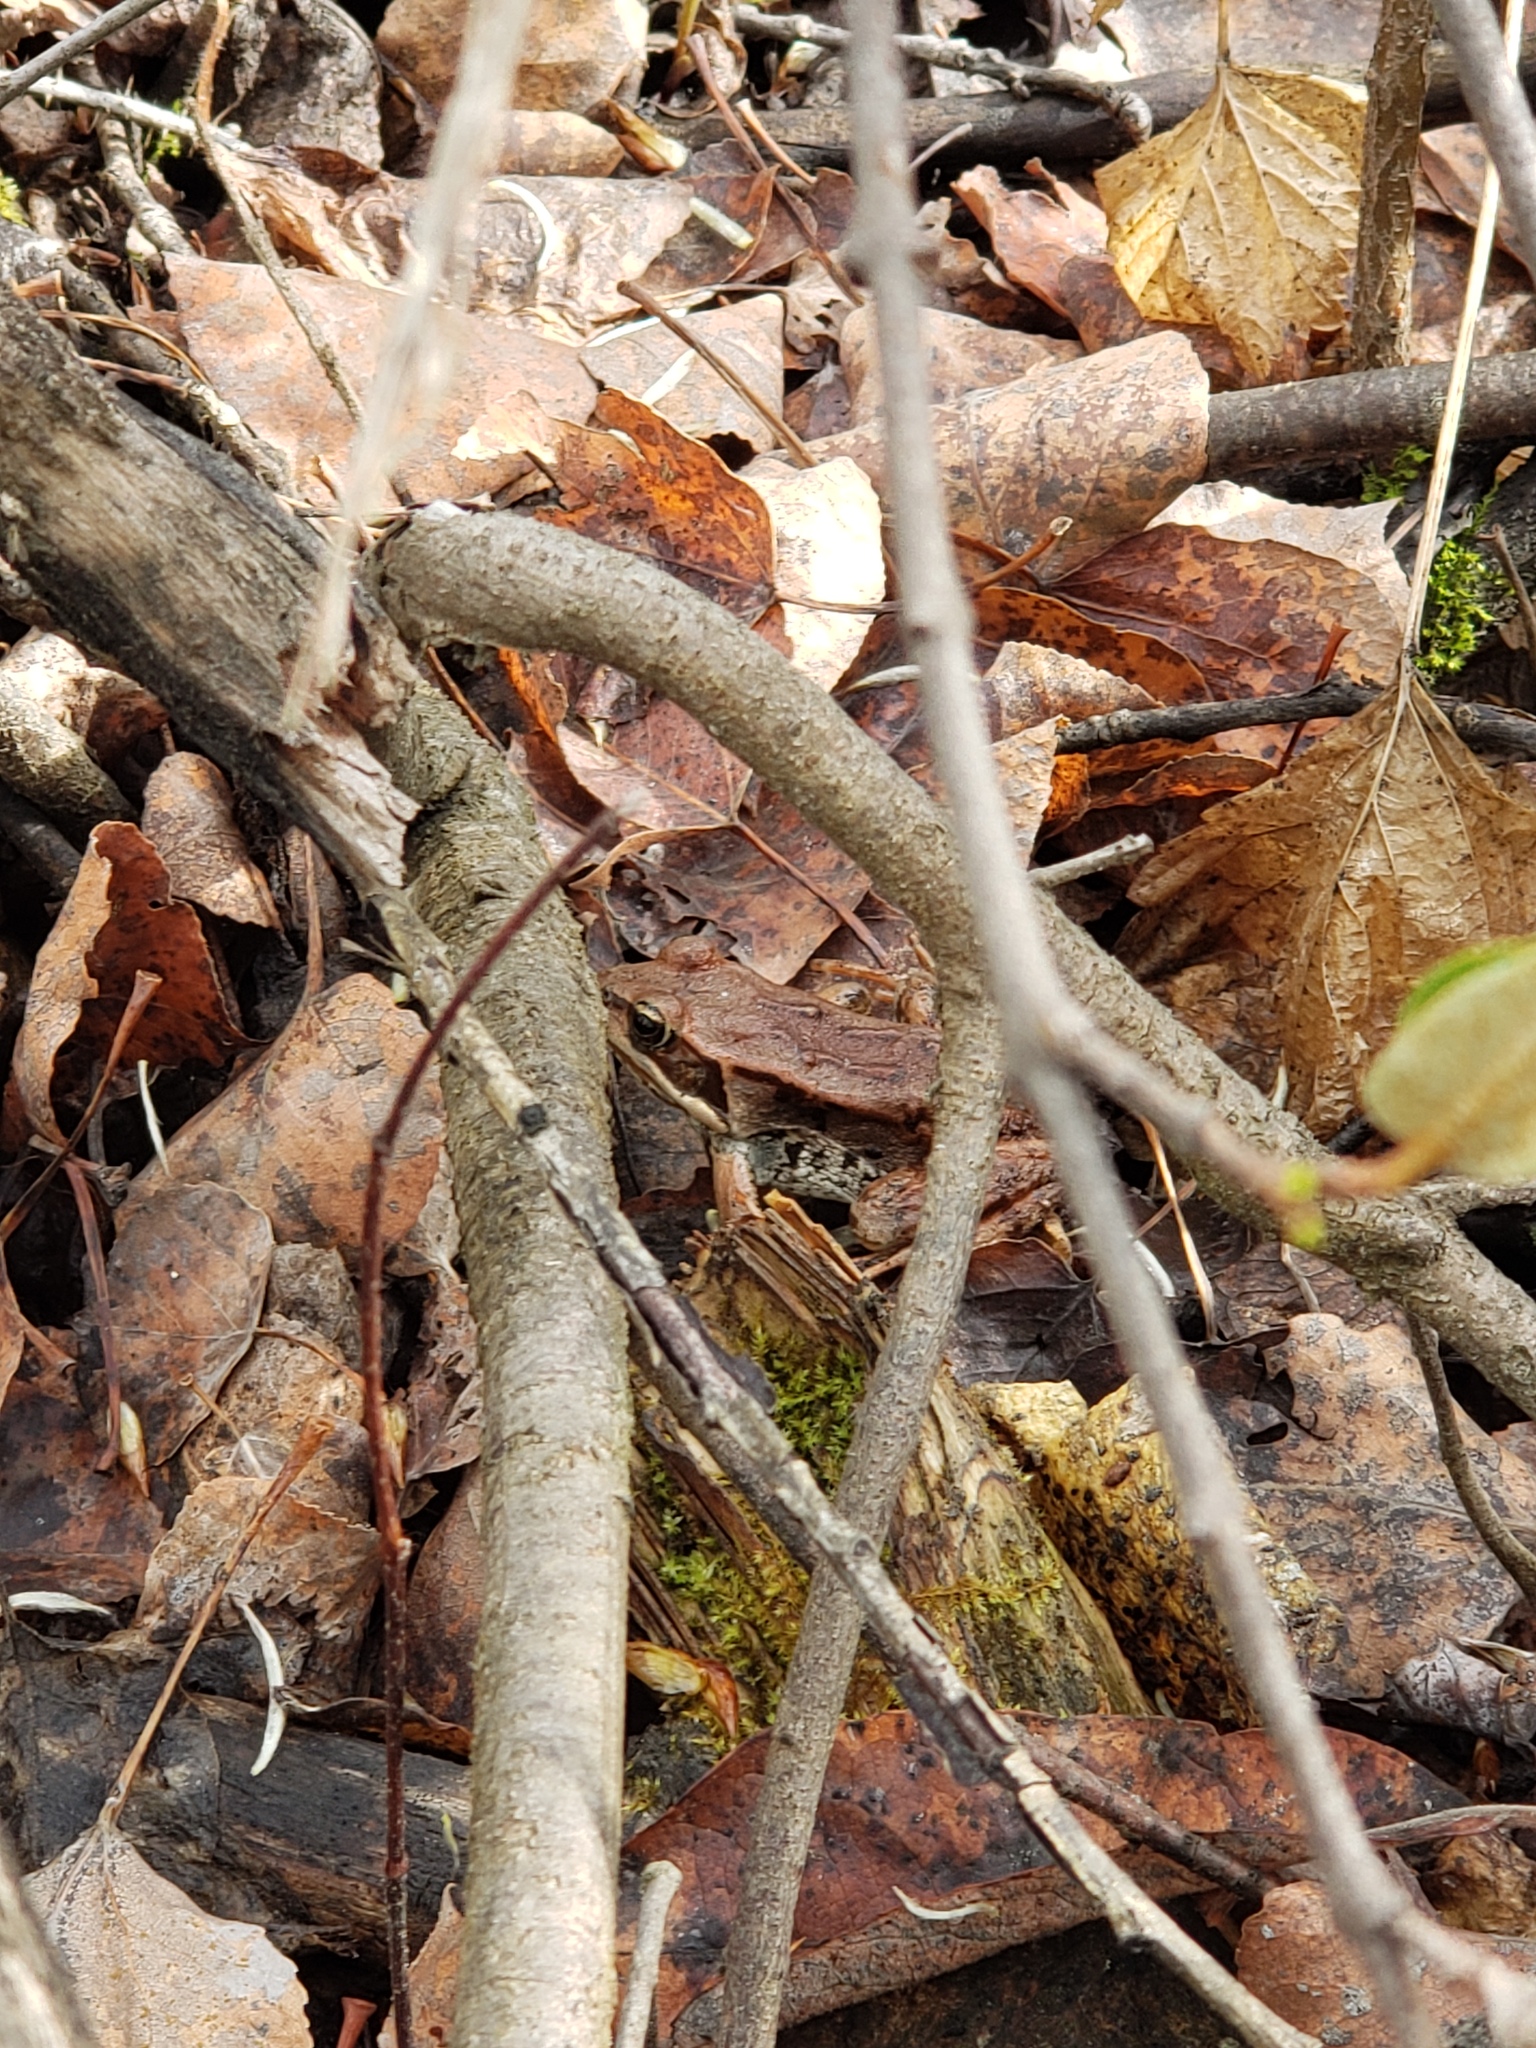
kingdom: Animalia
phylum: Chordata
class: Amphibia
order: Anura
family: Ranidae
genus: Lithobates
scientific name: Lithobates sylvaticus
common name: Wood frog
